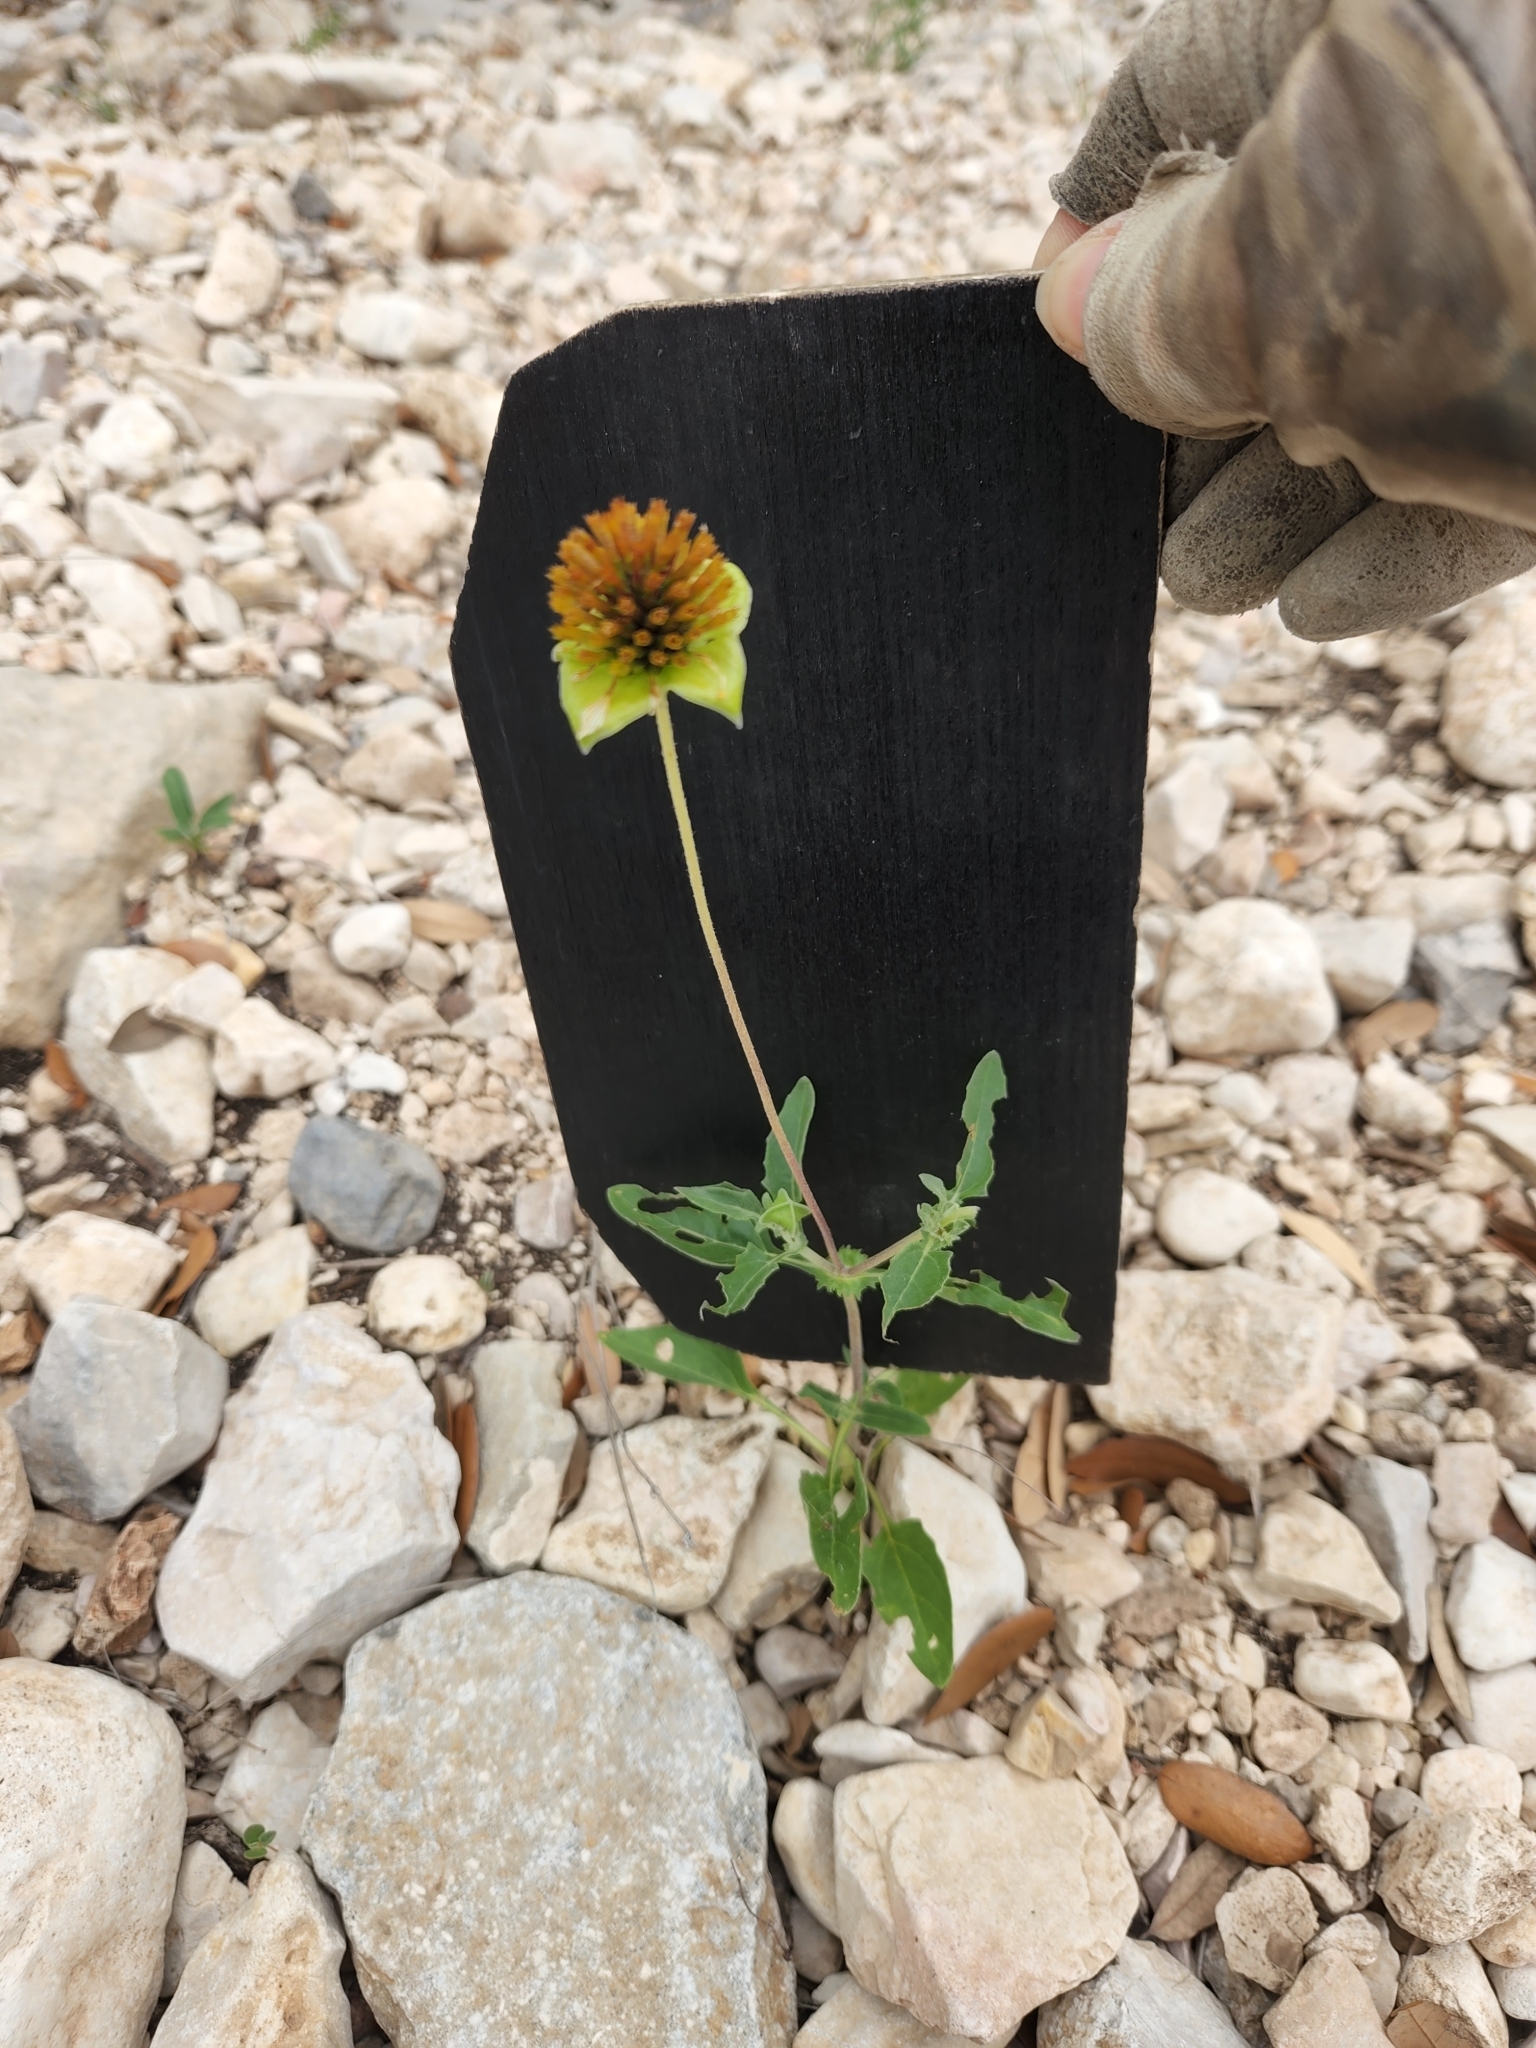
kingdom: Plantae
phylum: Tracheophyta
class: Magnoliopsida
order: Asterales
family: Asteraceae
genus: Tetragonotheca
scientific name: Tetragonotheca texana
